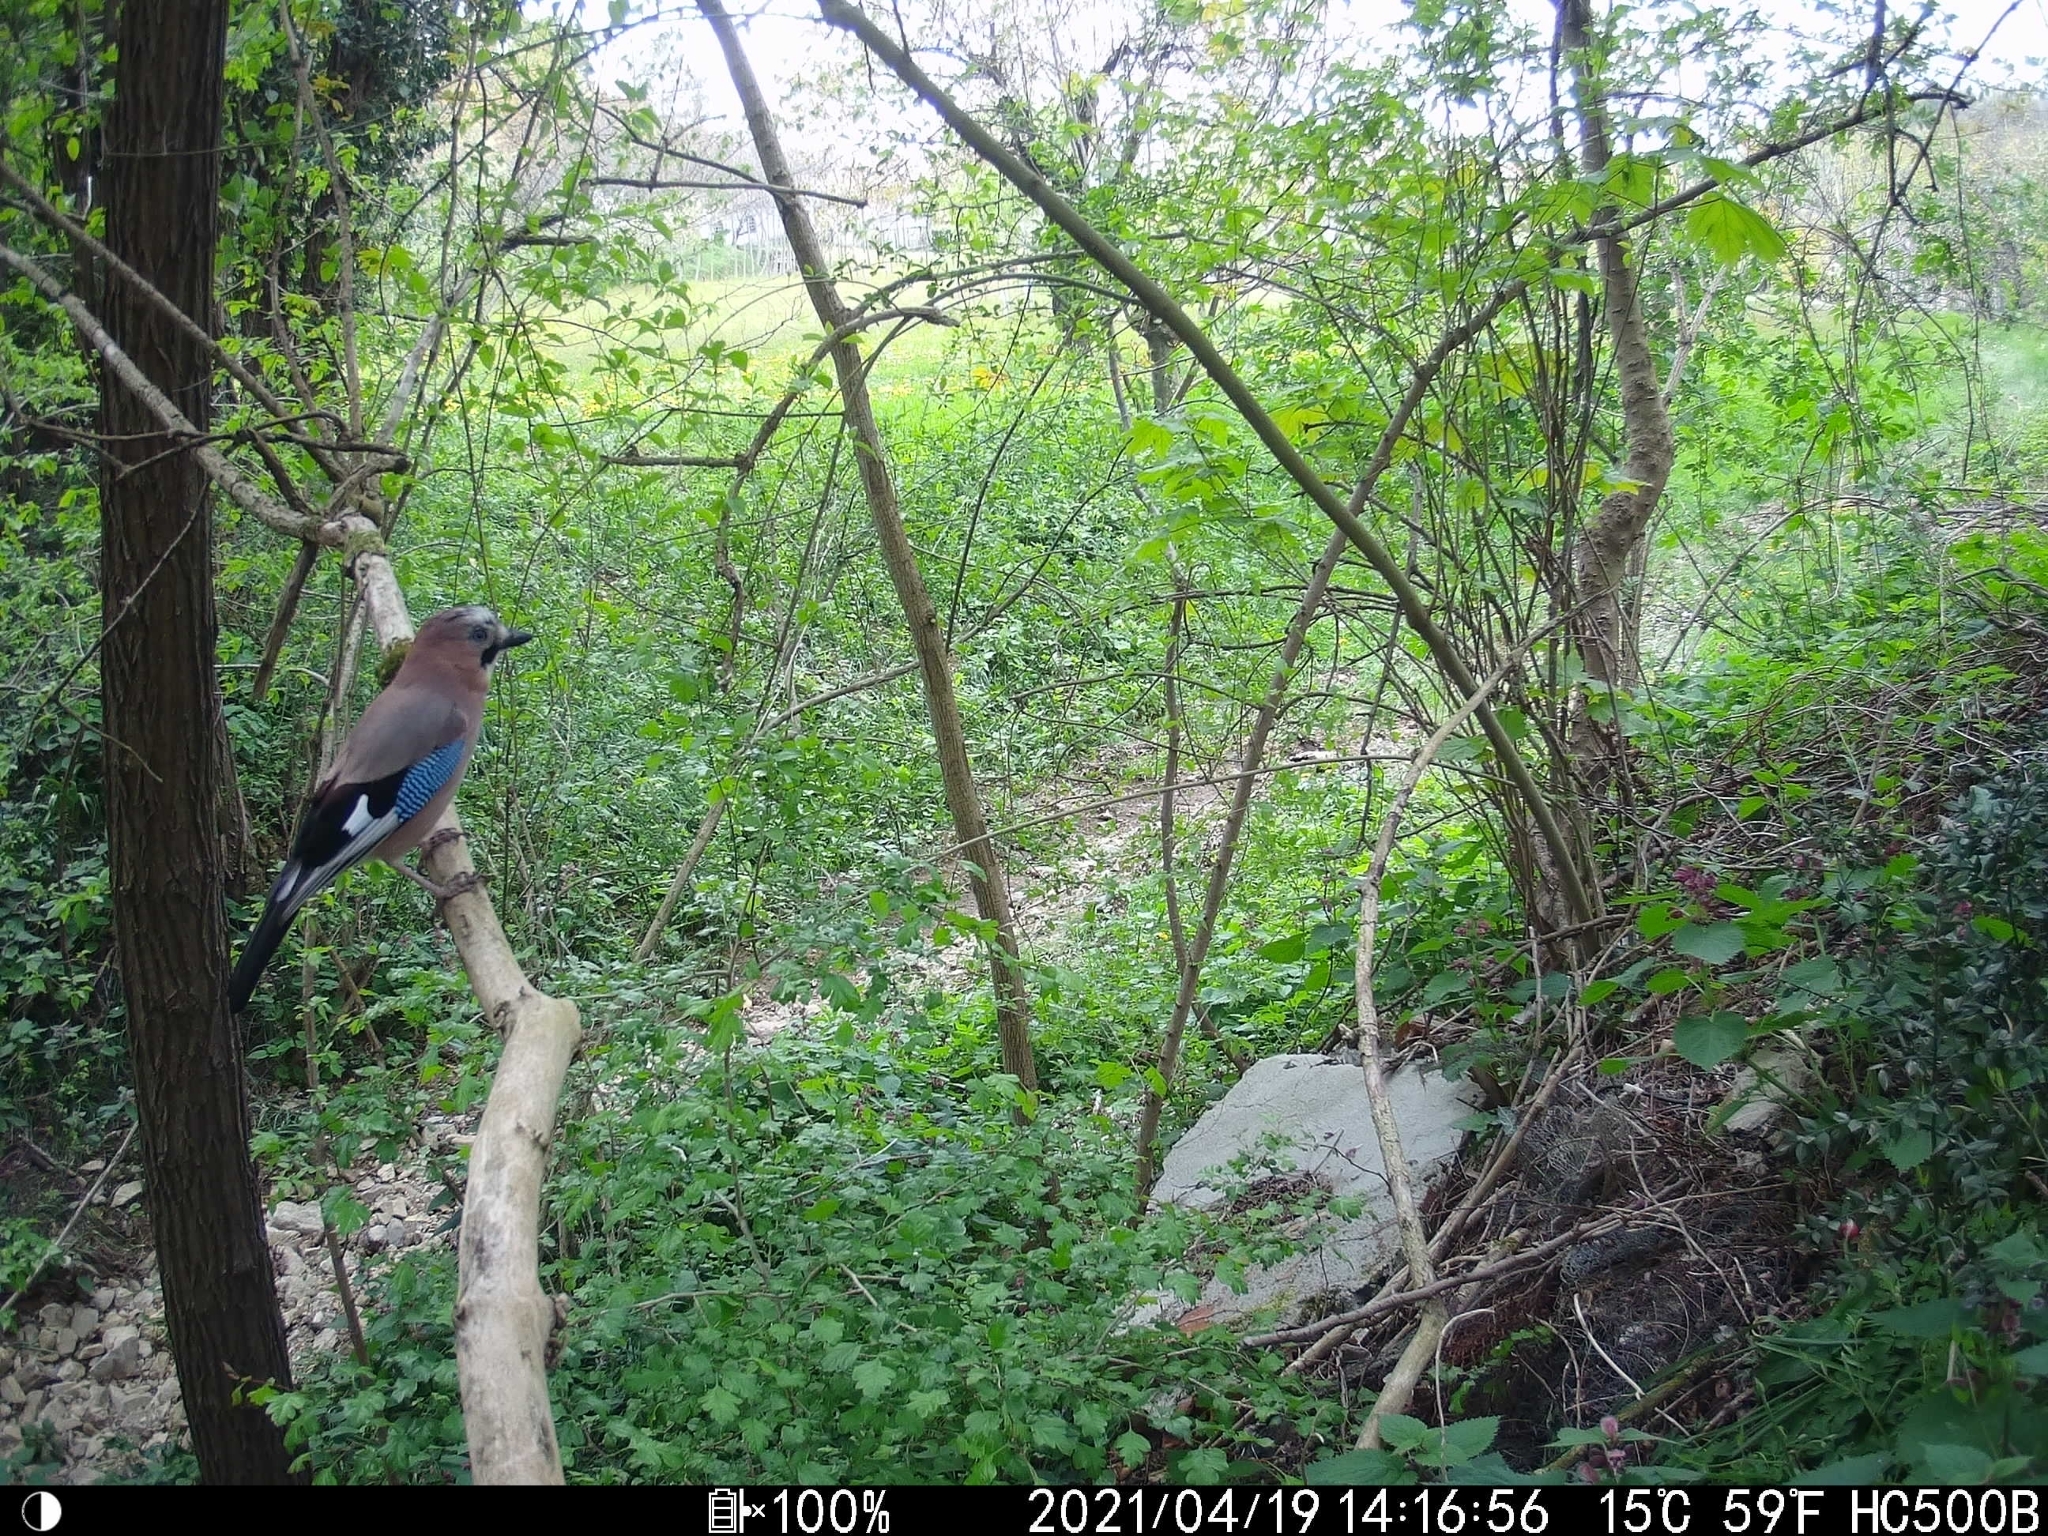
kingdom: Animalia
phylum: Chordata
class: Aves
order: Passeriformes
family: Corvidae
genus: Garrulus
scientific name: Garrulus glandarius
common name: Eurasian jay
